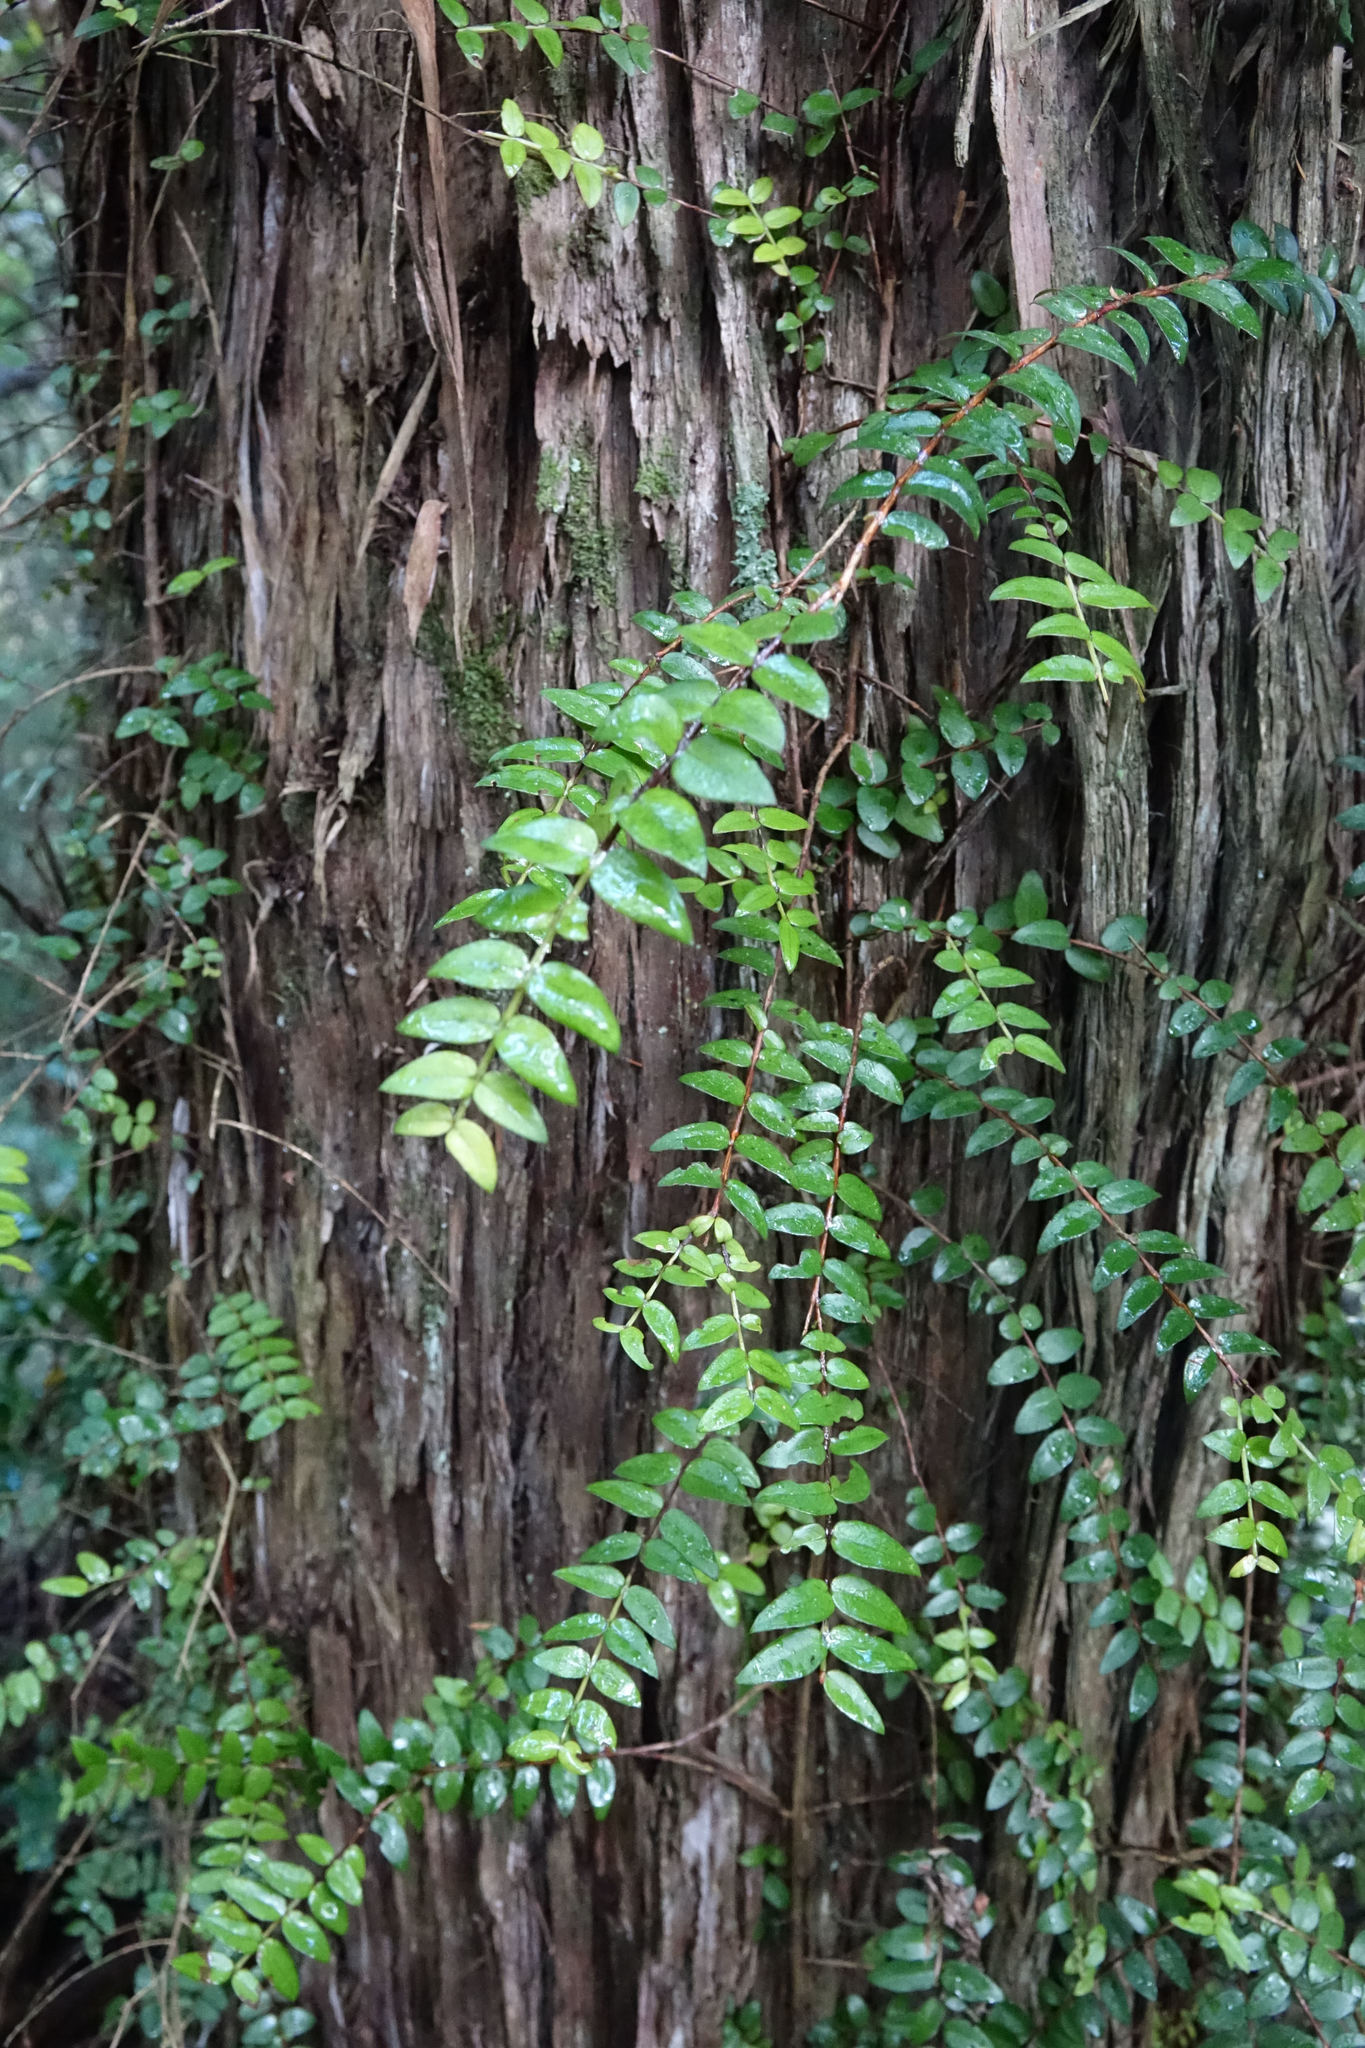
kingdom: Plantae
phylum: Tracheophyta
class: Magnoliopsida
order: Myrtales
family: Myrtaceae
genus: Metrosideros
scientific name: Metrosideros diffusa
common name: Small ratavine
